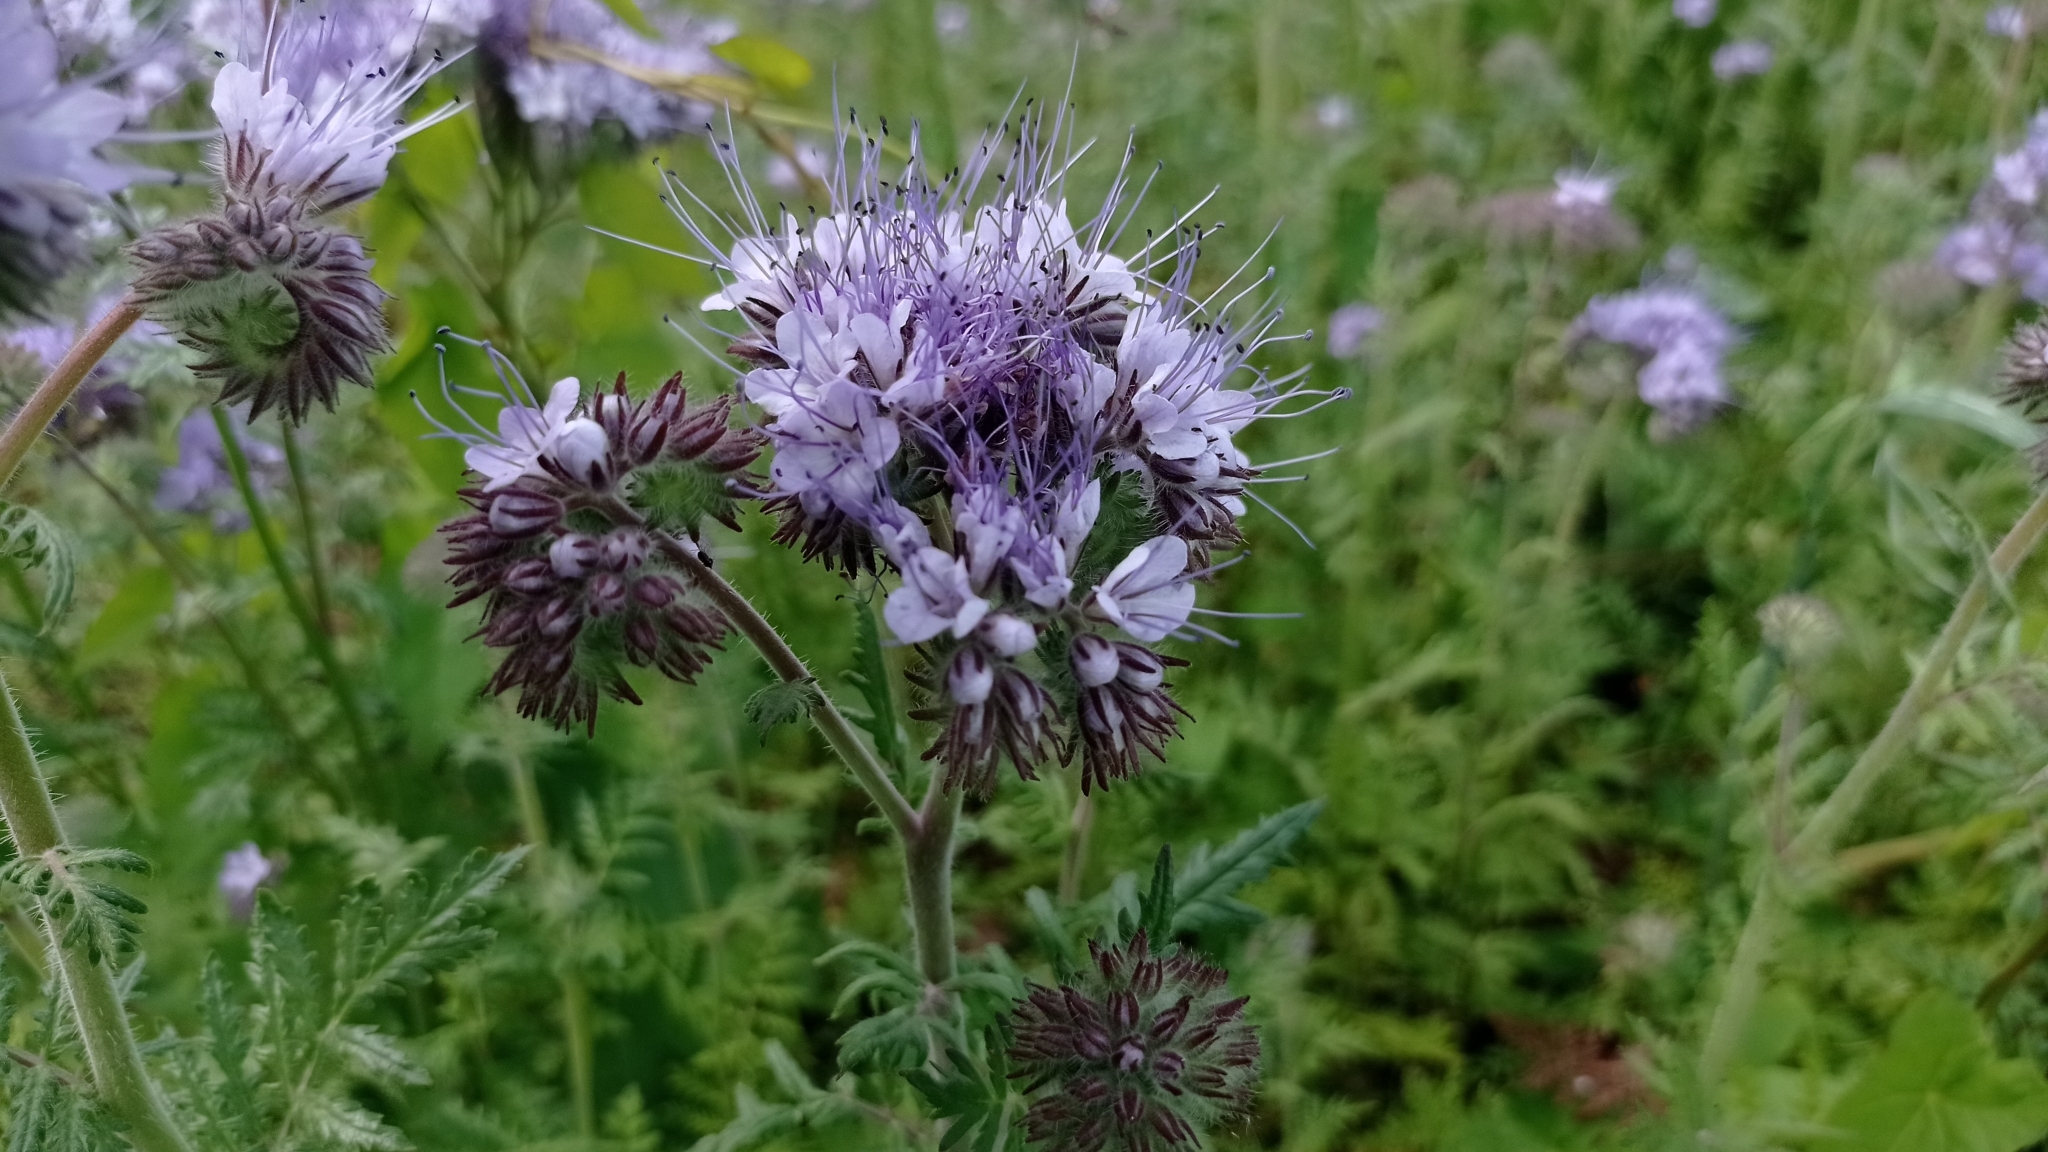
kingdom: Plantae
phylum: Tracheophyta
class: Magnoliopsida
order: Boraginales
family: Hydrophyllaceae
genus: Phacelia
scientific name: Phacelia tanacetifolia
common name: Phacelia
